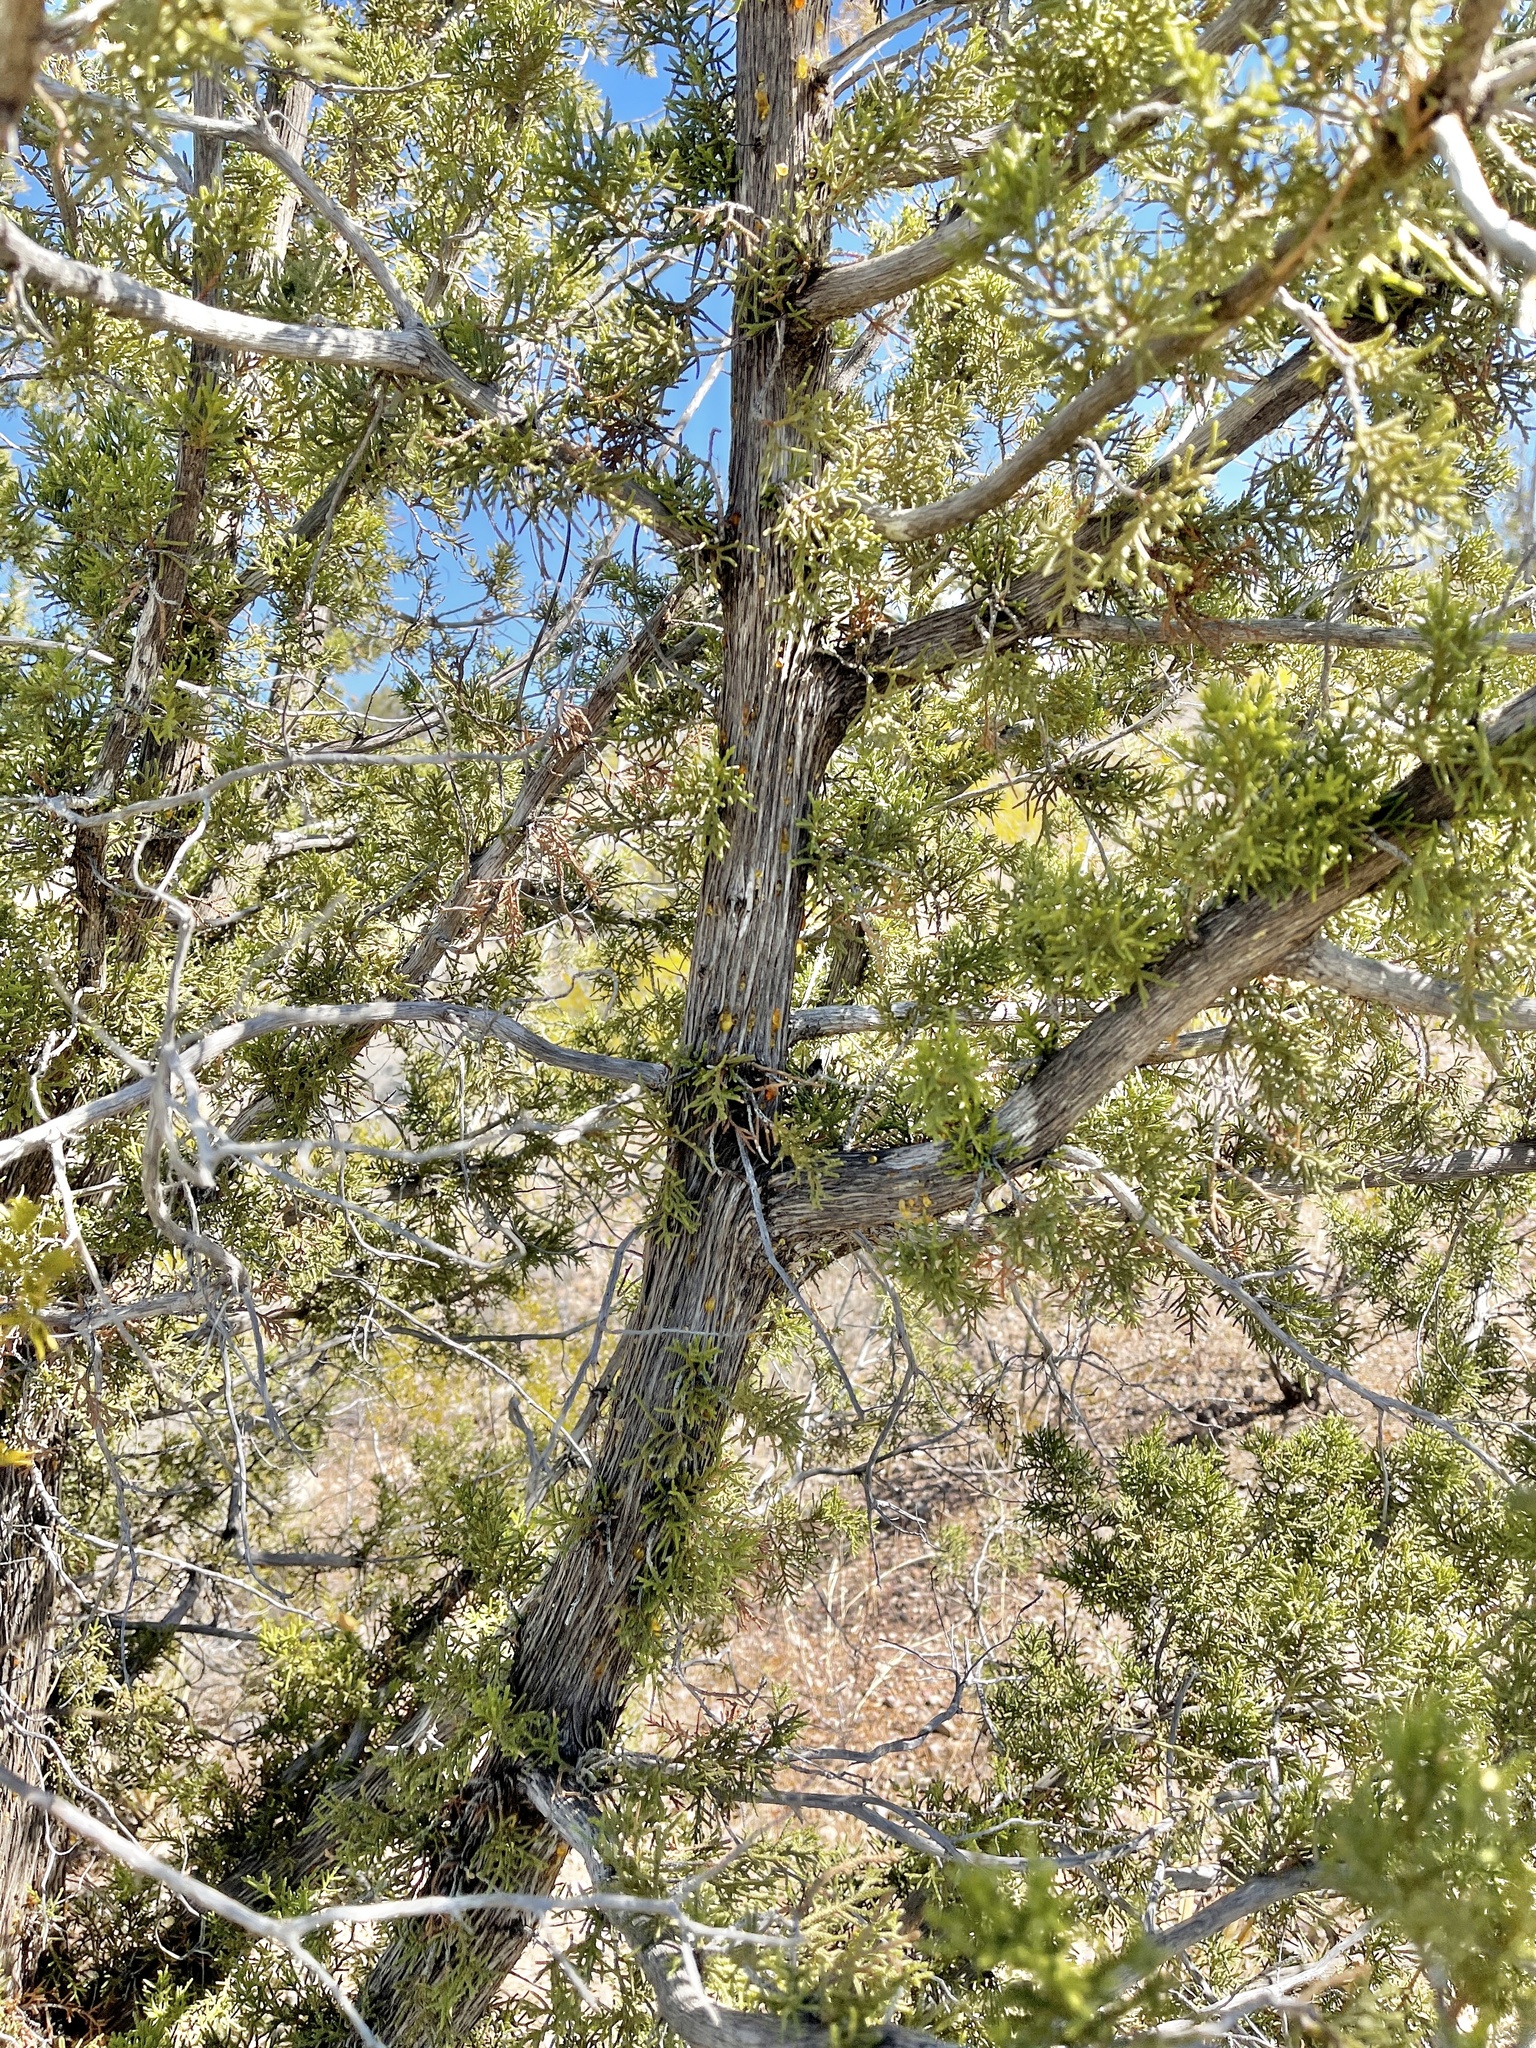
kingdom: Plantae
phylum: Tracheophyta
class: Pinopsida
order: Pinales
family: Cupressaceae
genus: Juniperus
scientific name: Juniperus monosperma
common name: One-seed juniper
